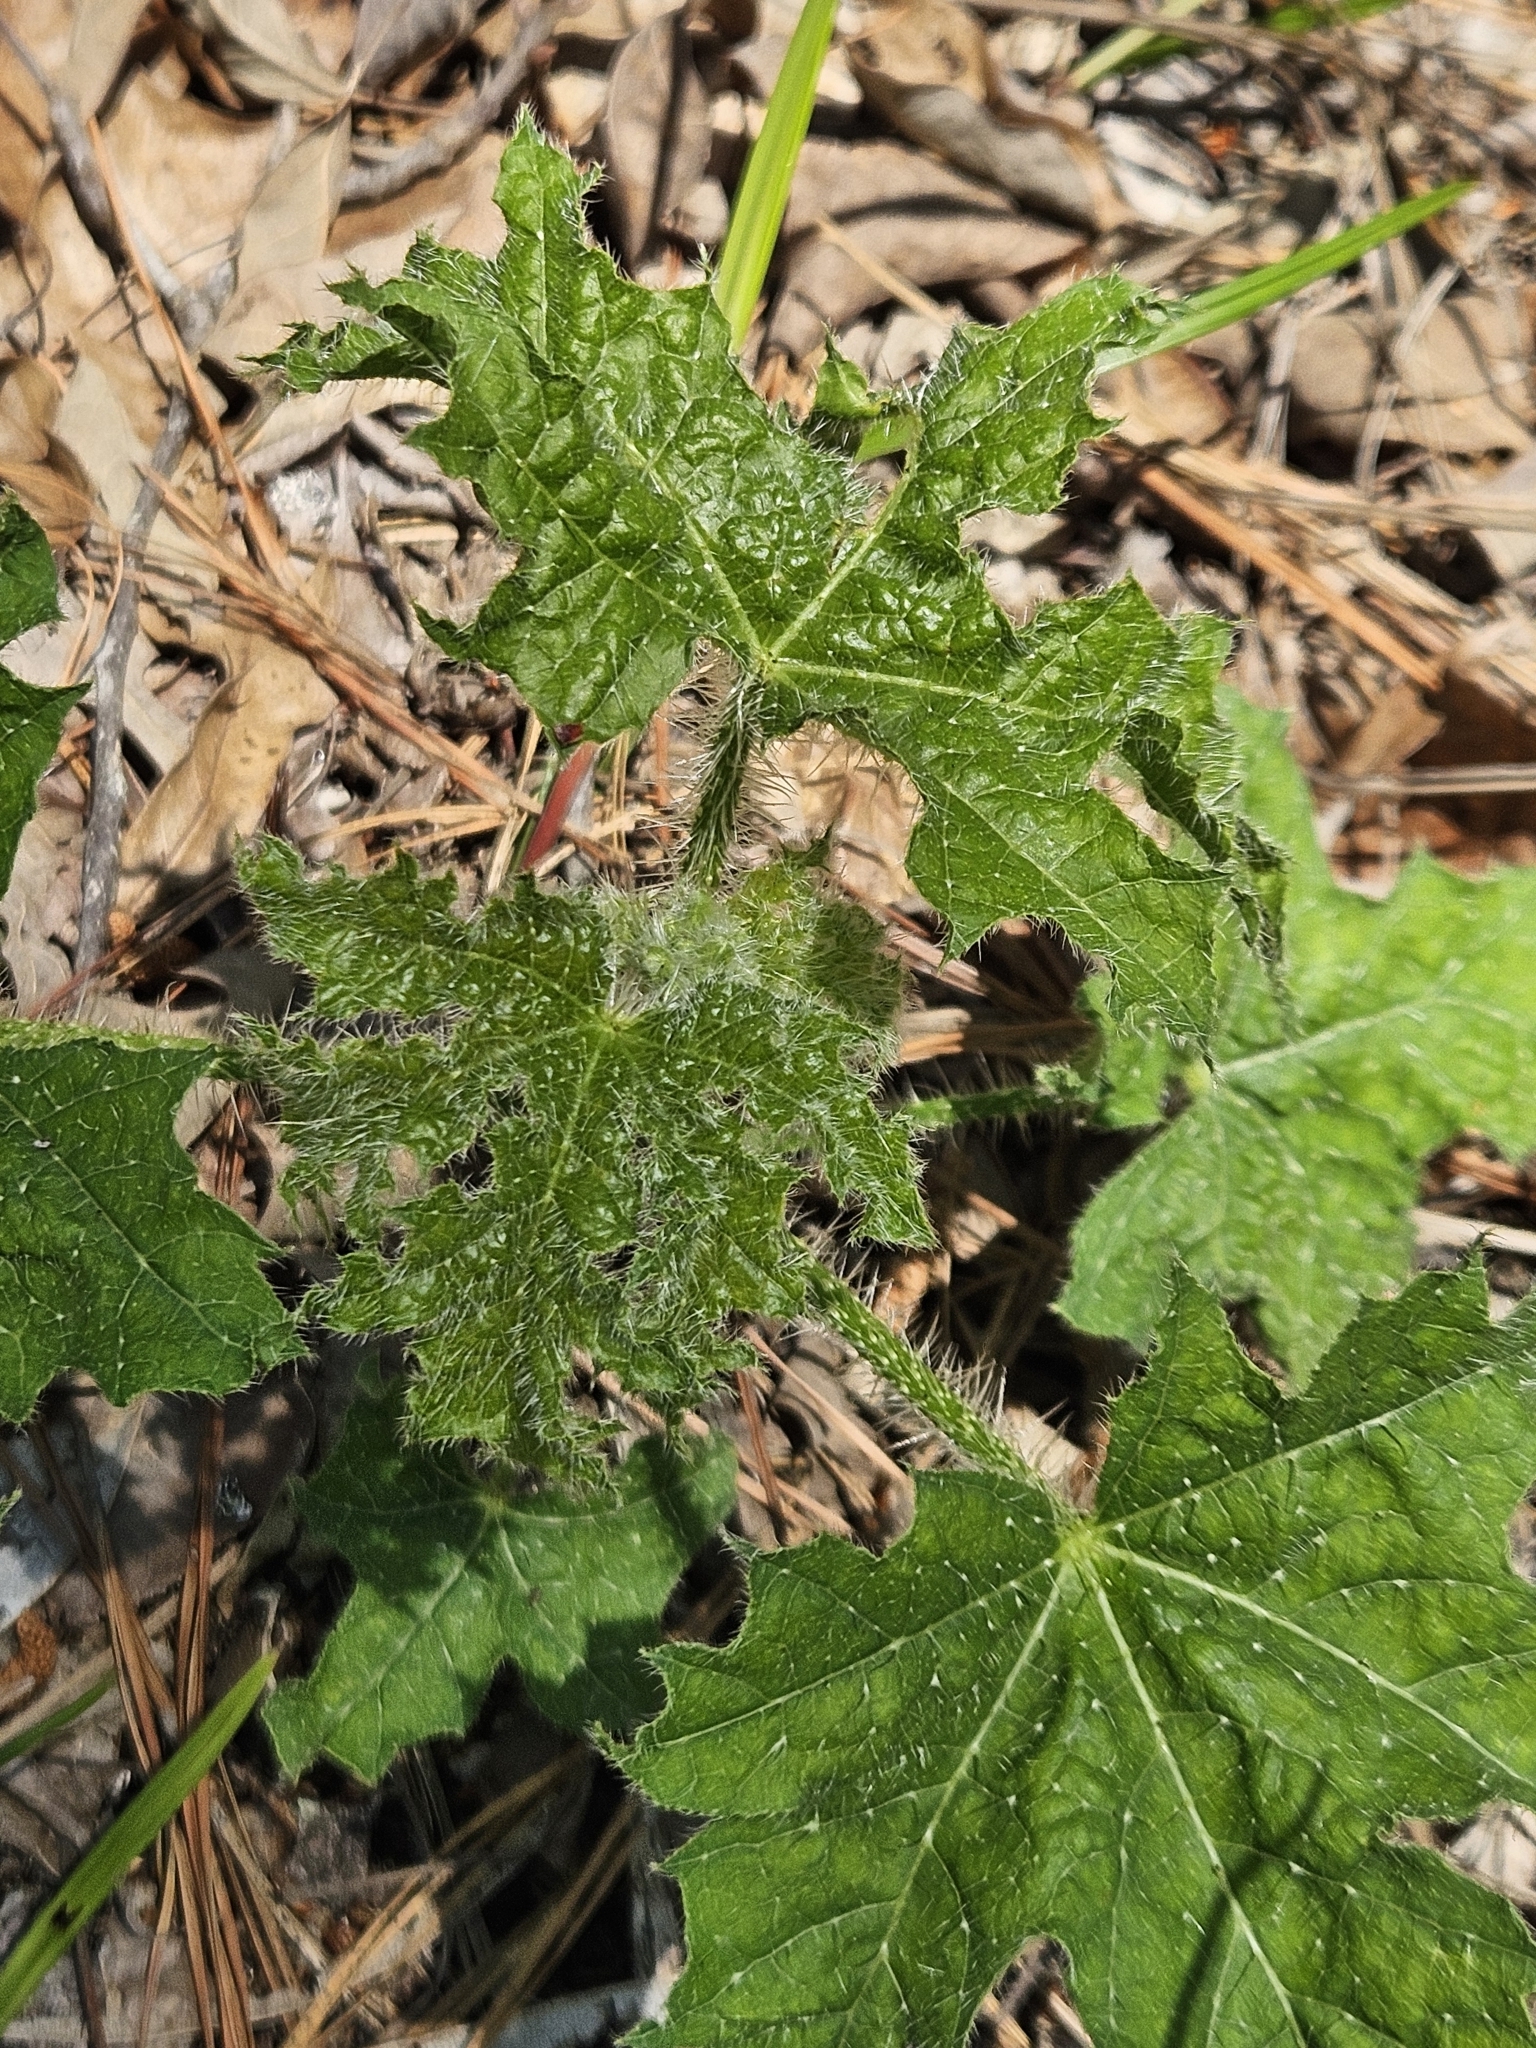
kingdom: Plantae
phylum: Tracheophyta
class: Magnoliopsida
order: Malpighiales
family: Euphorbiaceae
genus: Cnidoscolus
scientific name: Cnidoscolus texanus
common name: Texas bull-nettle
